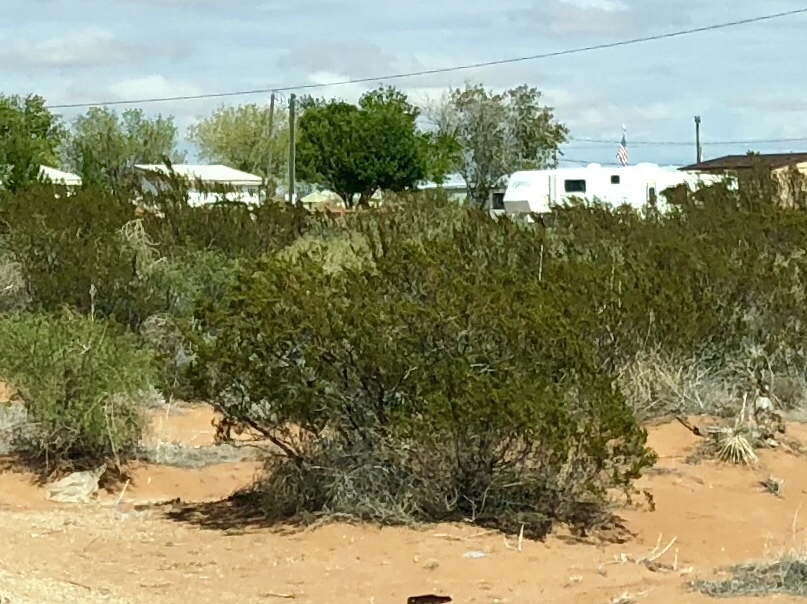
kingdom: Plantae
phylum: Tracheophyta
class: Magnoliopsida
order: Zygophyllales
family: Zygophyllaceae
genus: Larrea
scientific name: Larrea tridentata
